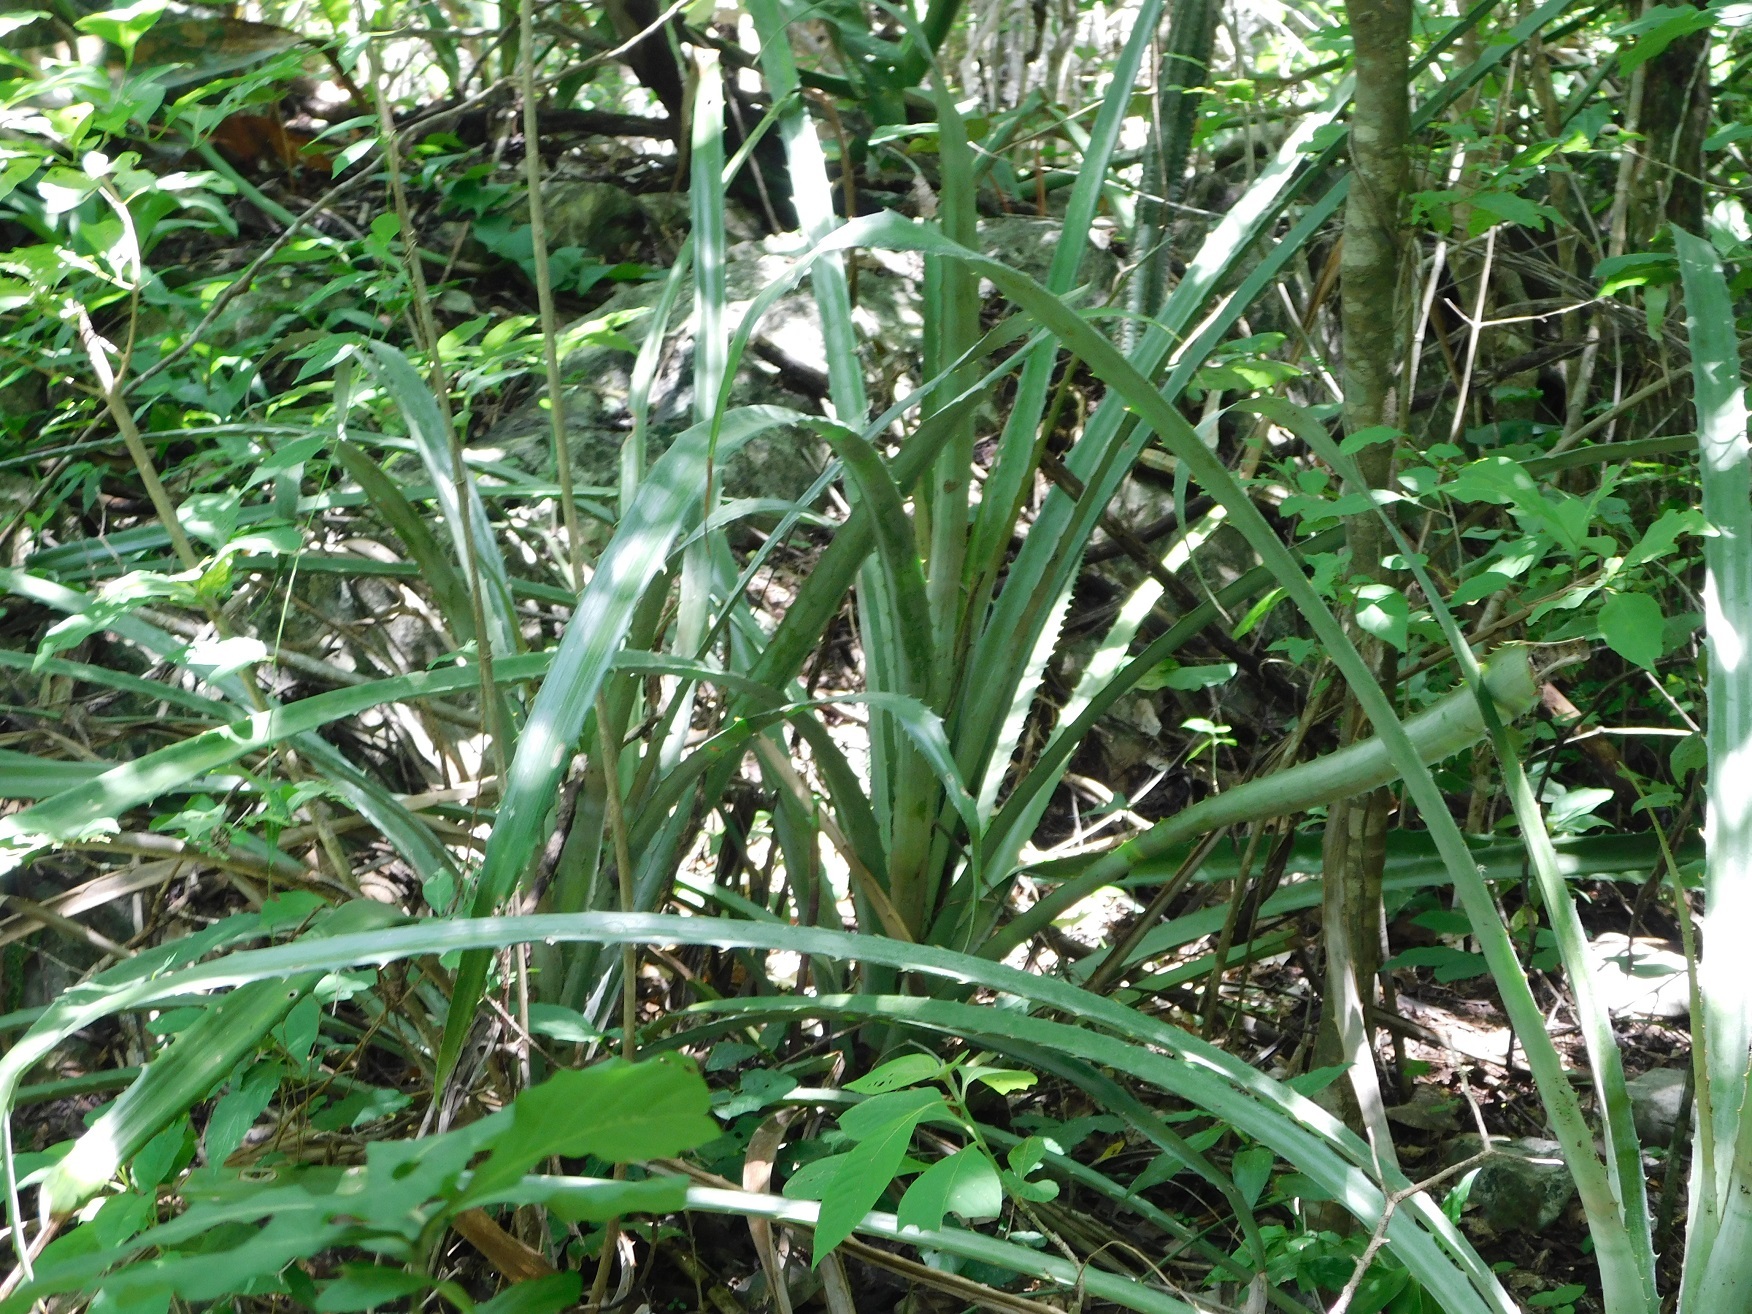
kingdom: Plantae
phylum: Tracheophyta
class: Liliopsida
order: Poales
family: Bromeliaceae
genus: Bromelia
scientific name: Bromelia karatas
